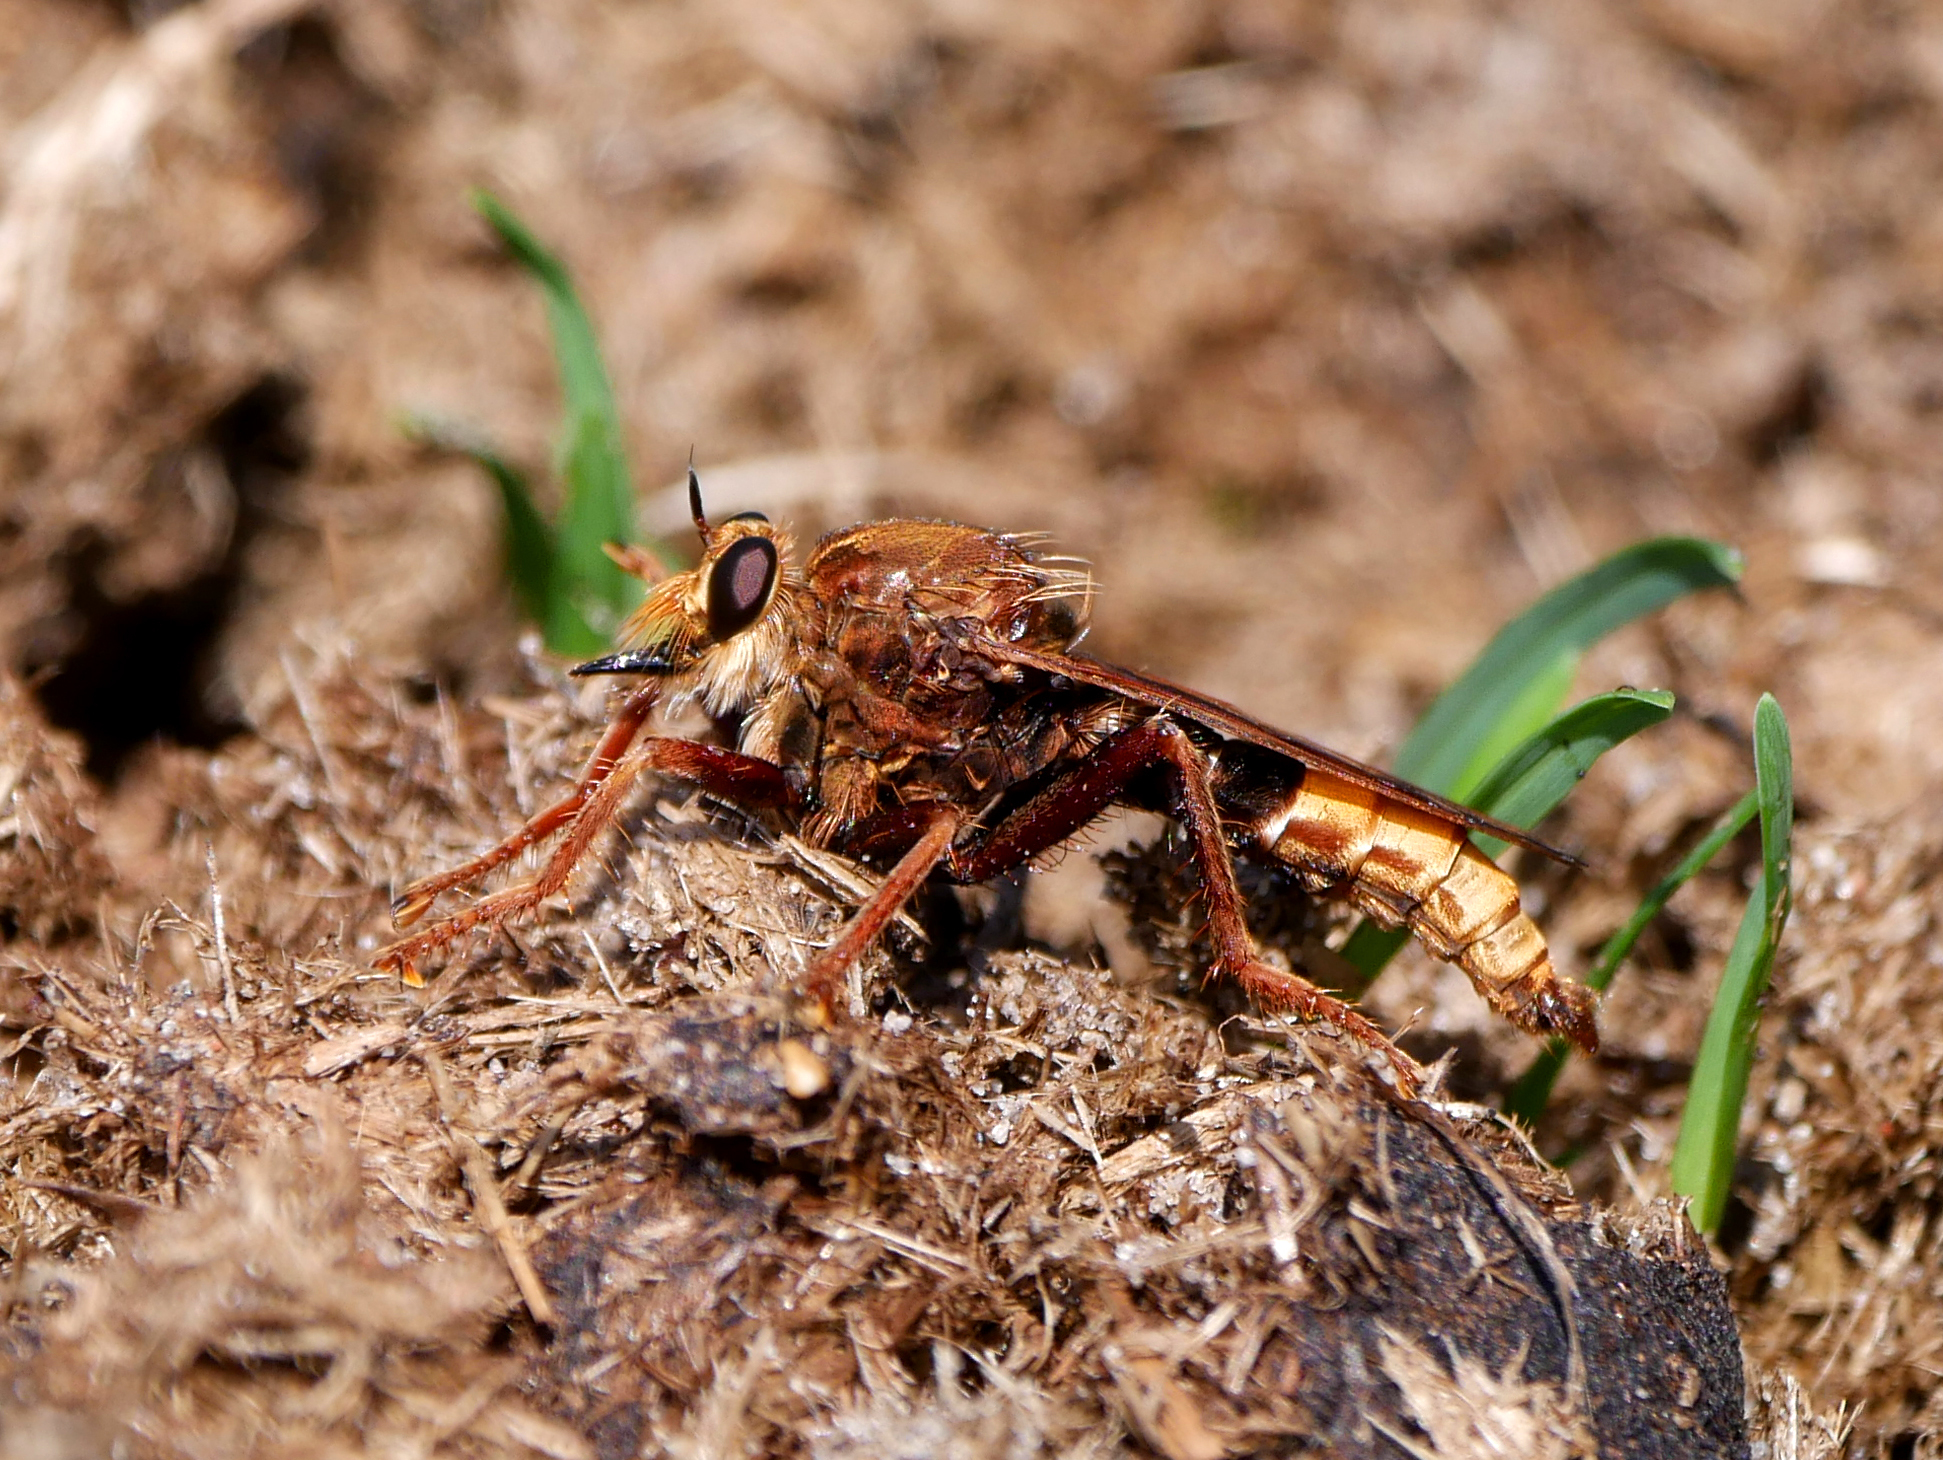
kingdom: Animalia
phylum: Arthropoda
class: Insecta
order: Diptera
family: Asilidae
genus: Asilus
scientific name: Asilus crabroniformis
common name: Hornet robberfly
